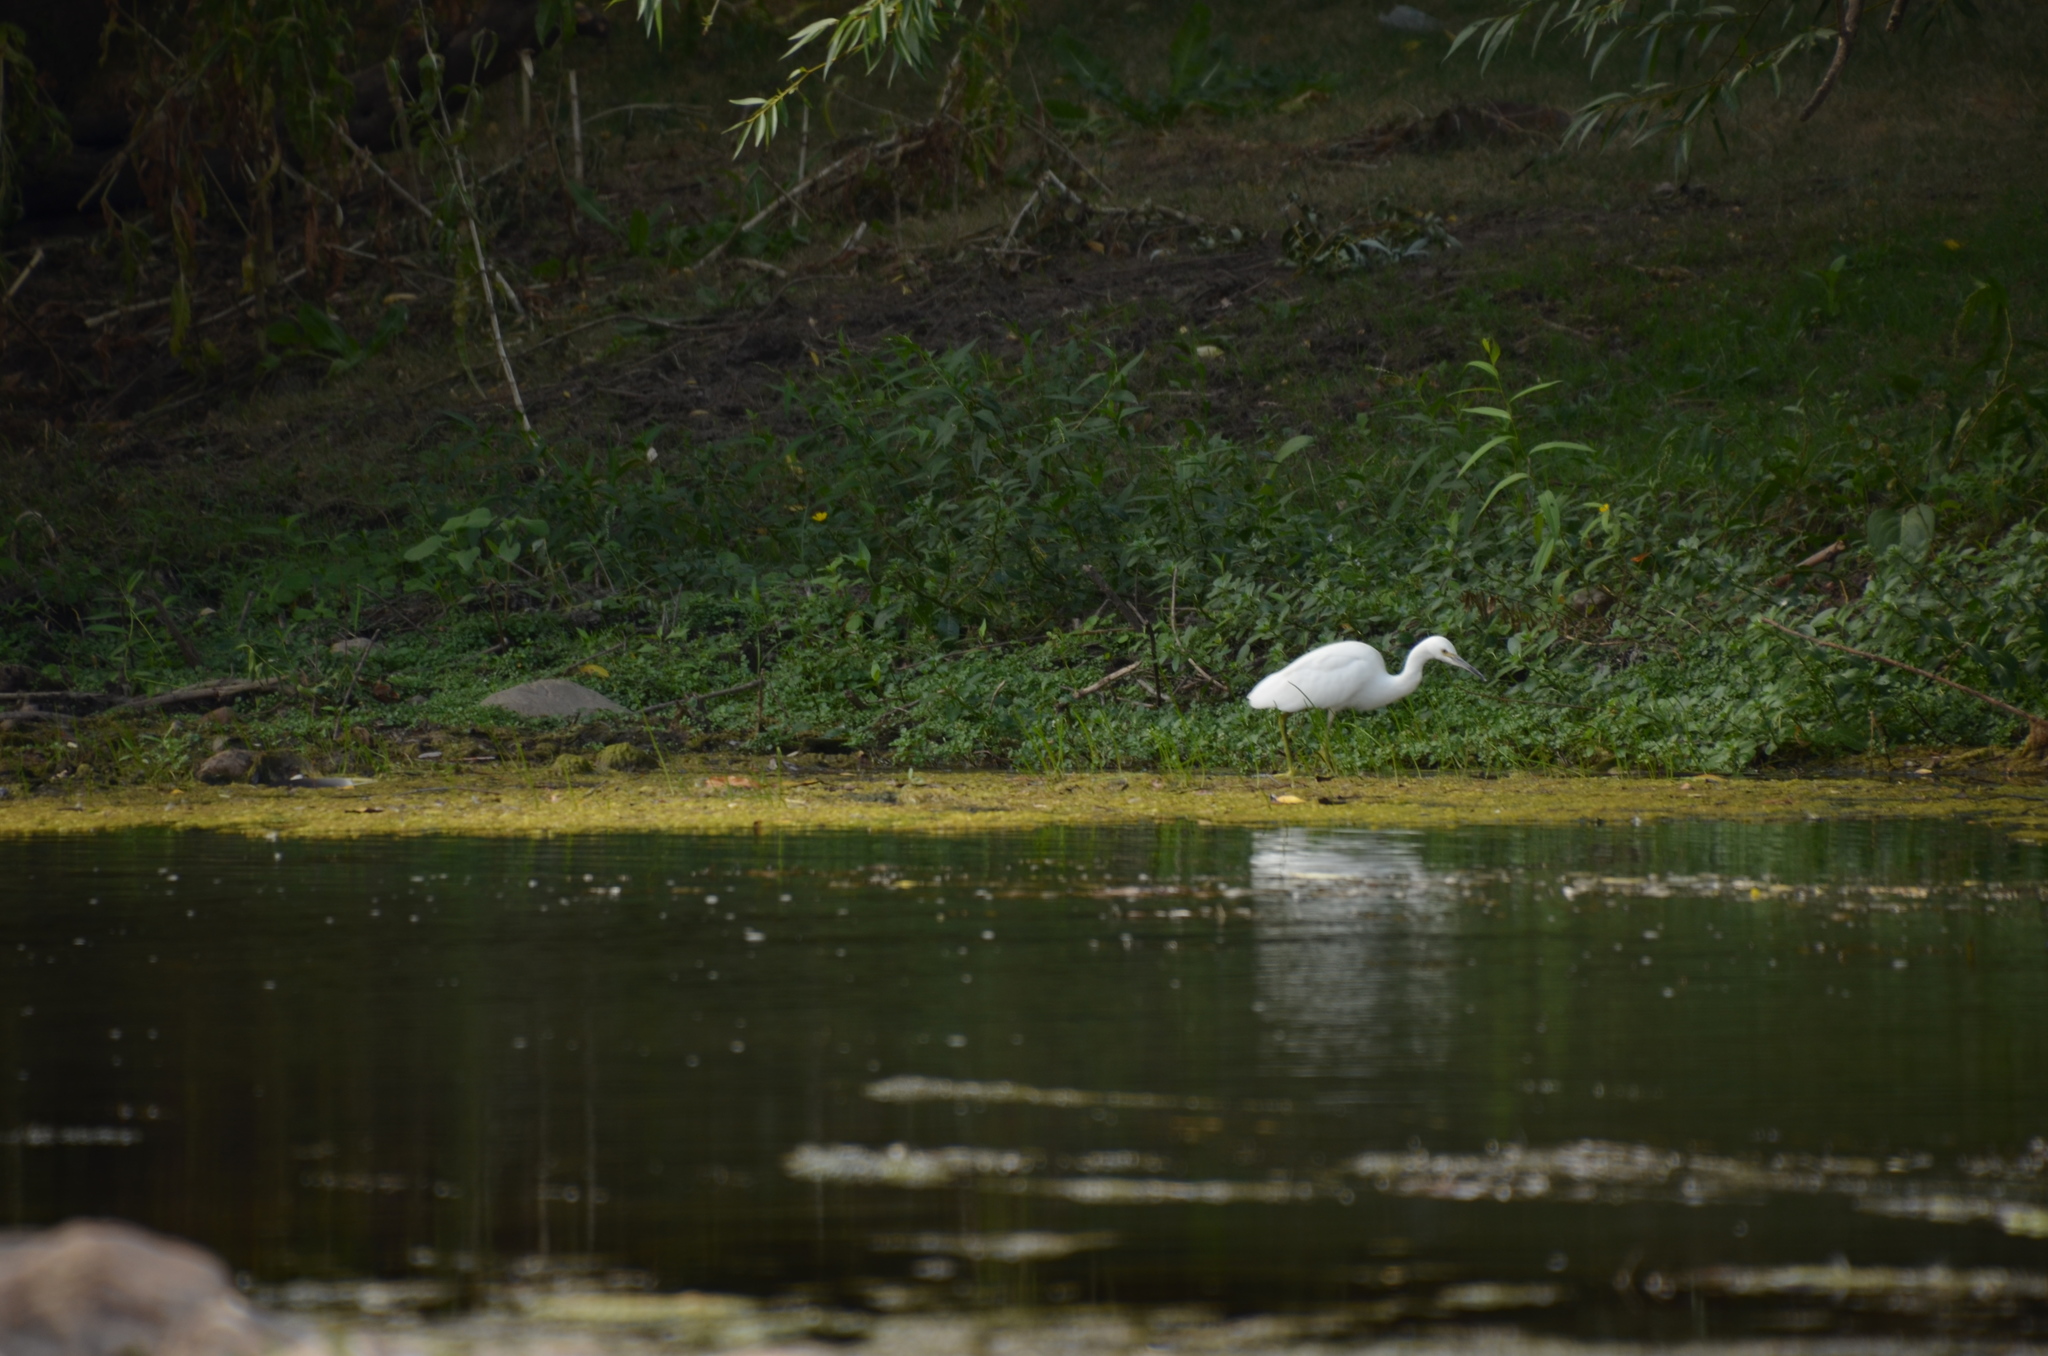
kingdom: Animalia
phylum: Chordata
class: Aves
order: Pelecaniformes
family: Ardeidae
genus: Egretta
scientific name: Egretta thula
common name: Snowy egret
